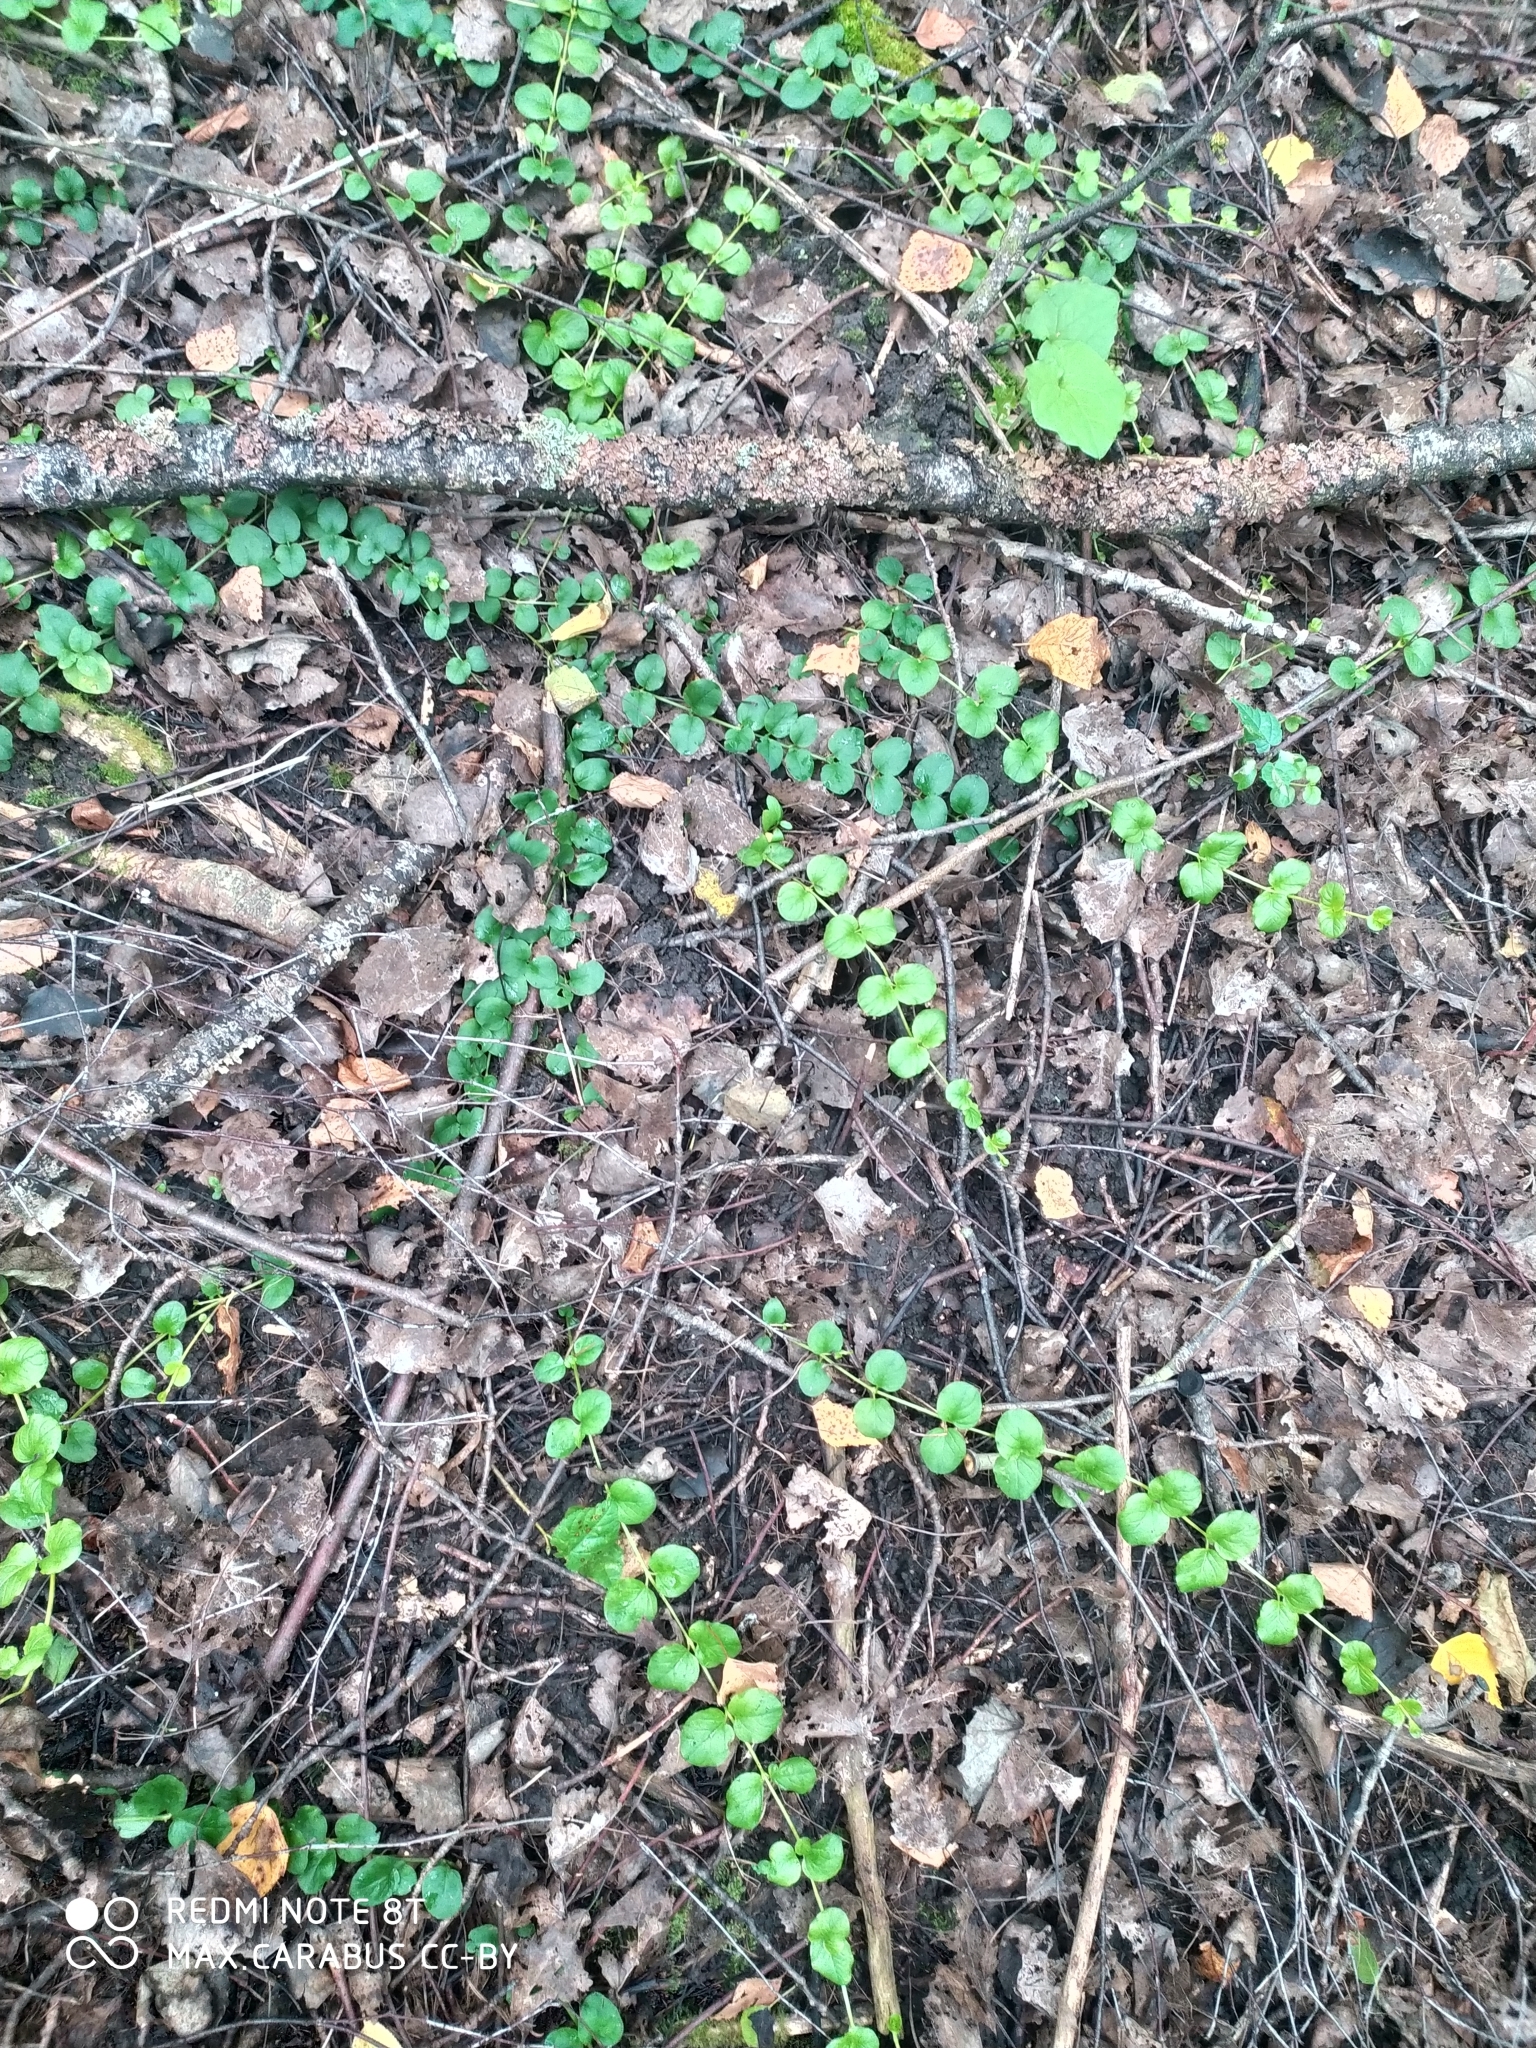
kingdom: Plantae
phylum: Tracheophyta
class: Magnoliopsida
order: Ericales
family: Primulaceae
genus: Lysimachia
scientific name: Lysimachia nummularia
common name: Moneywort
